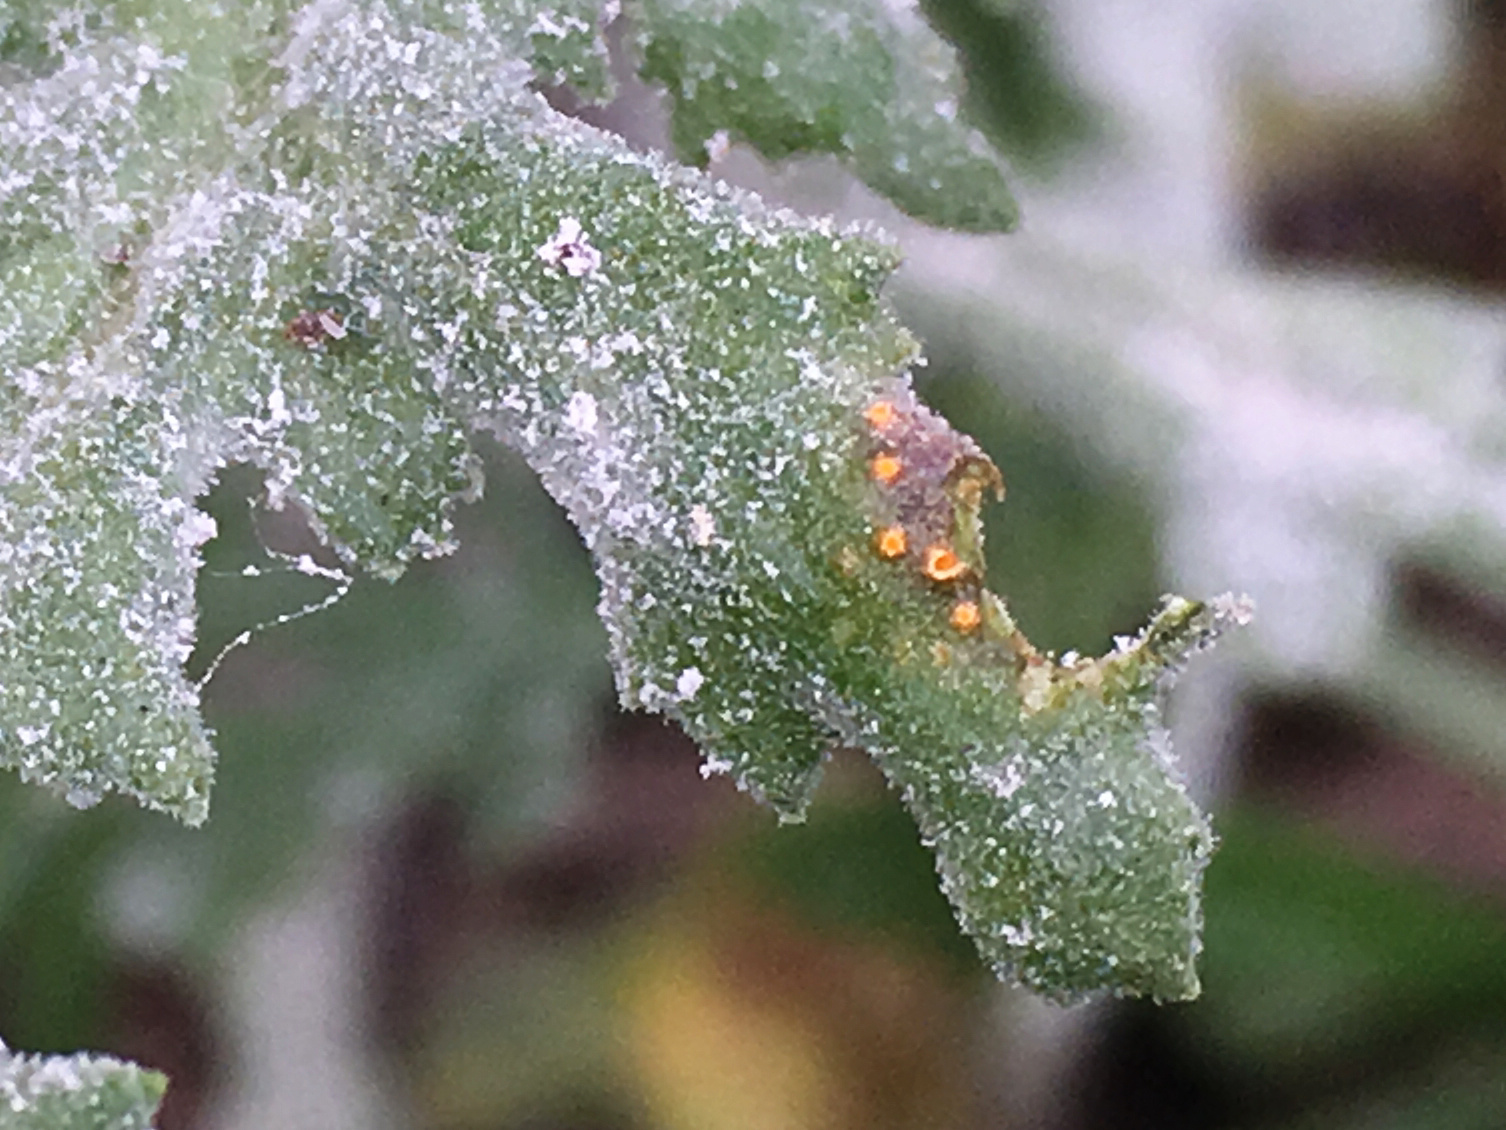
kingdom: Fungi
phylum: Basidiomycota
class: Pucciniomycetes
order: Pucciniales
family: Pucciniaceae
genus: Puccinia
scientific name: Puccinia lagenophorae
